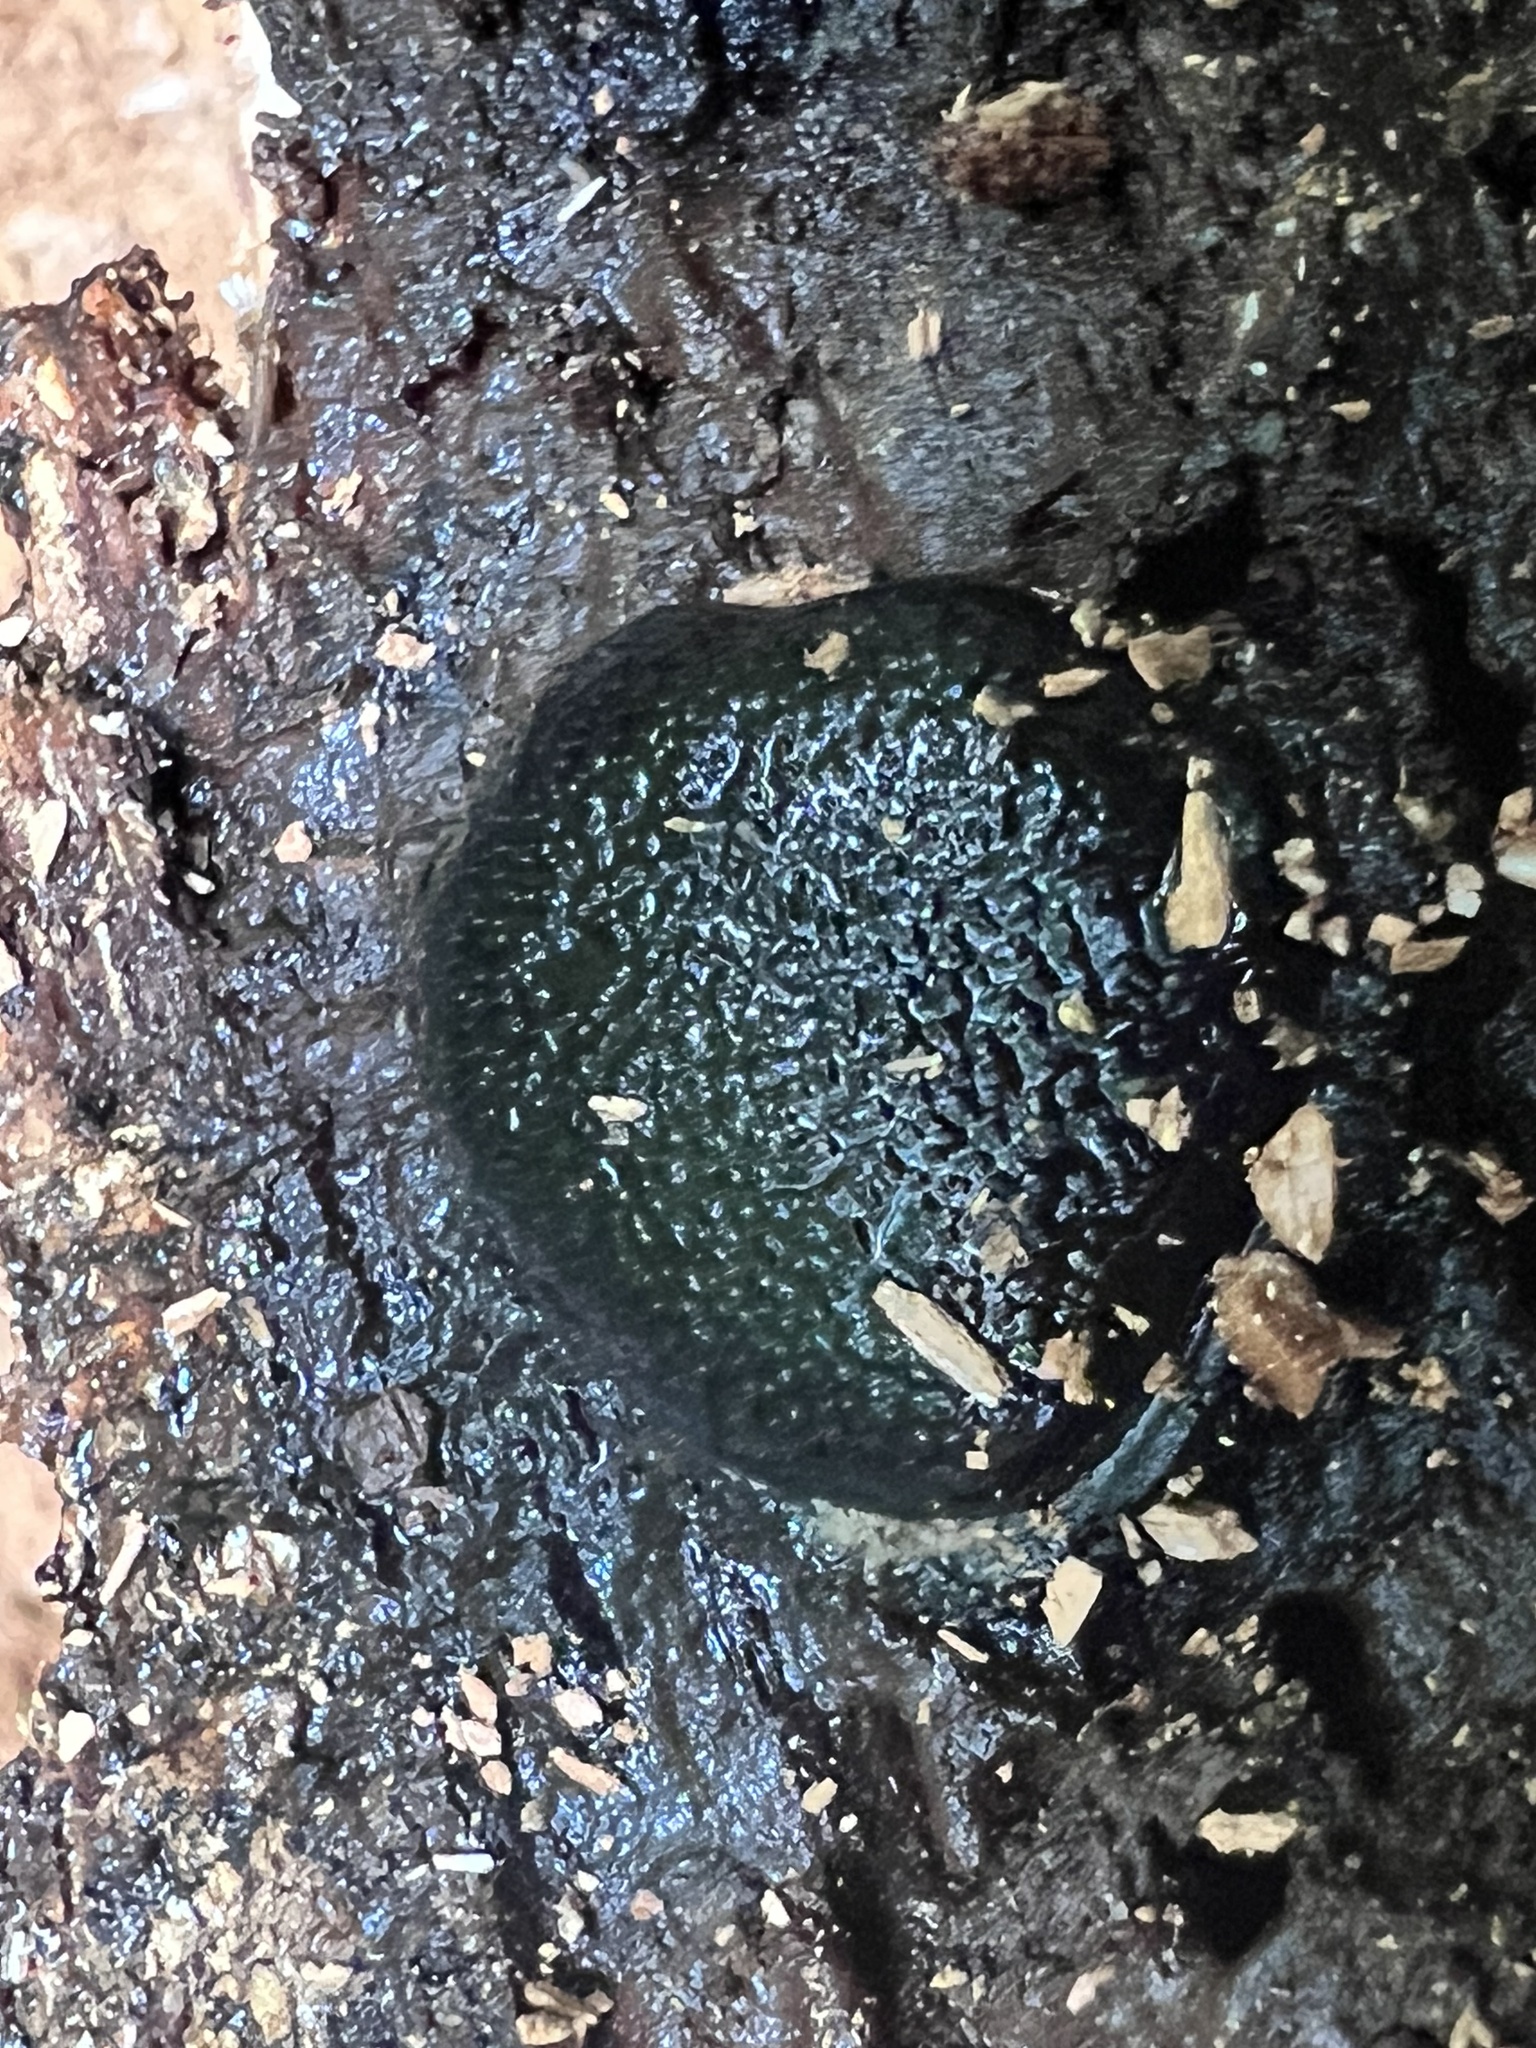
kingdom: Fungi
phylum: Ascomycota
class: Sordariomycetes
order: Boliniales
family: Boliniaceae
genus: Camarops
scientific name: Camarops petersii
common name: Dog's nose fungus
